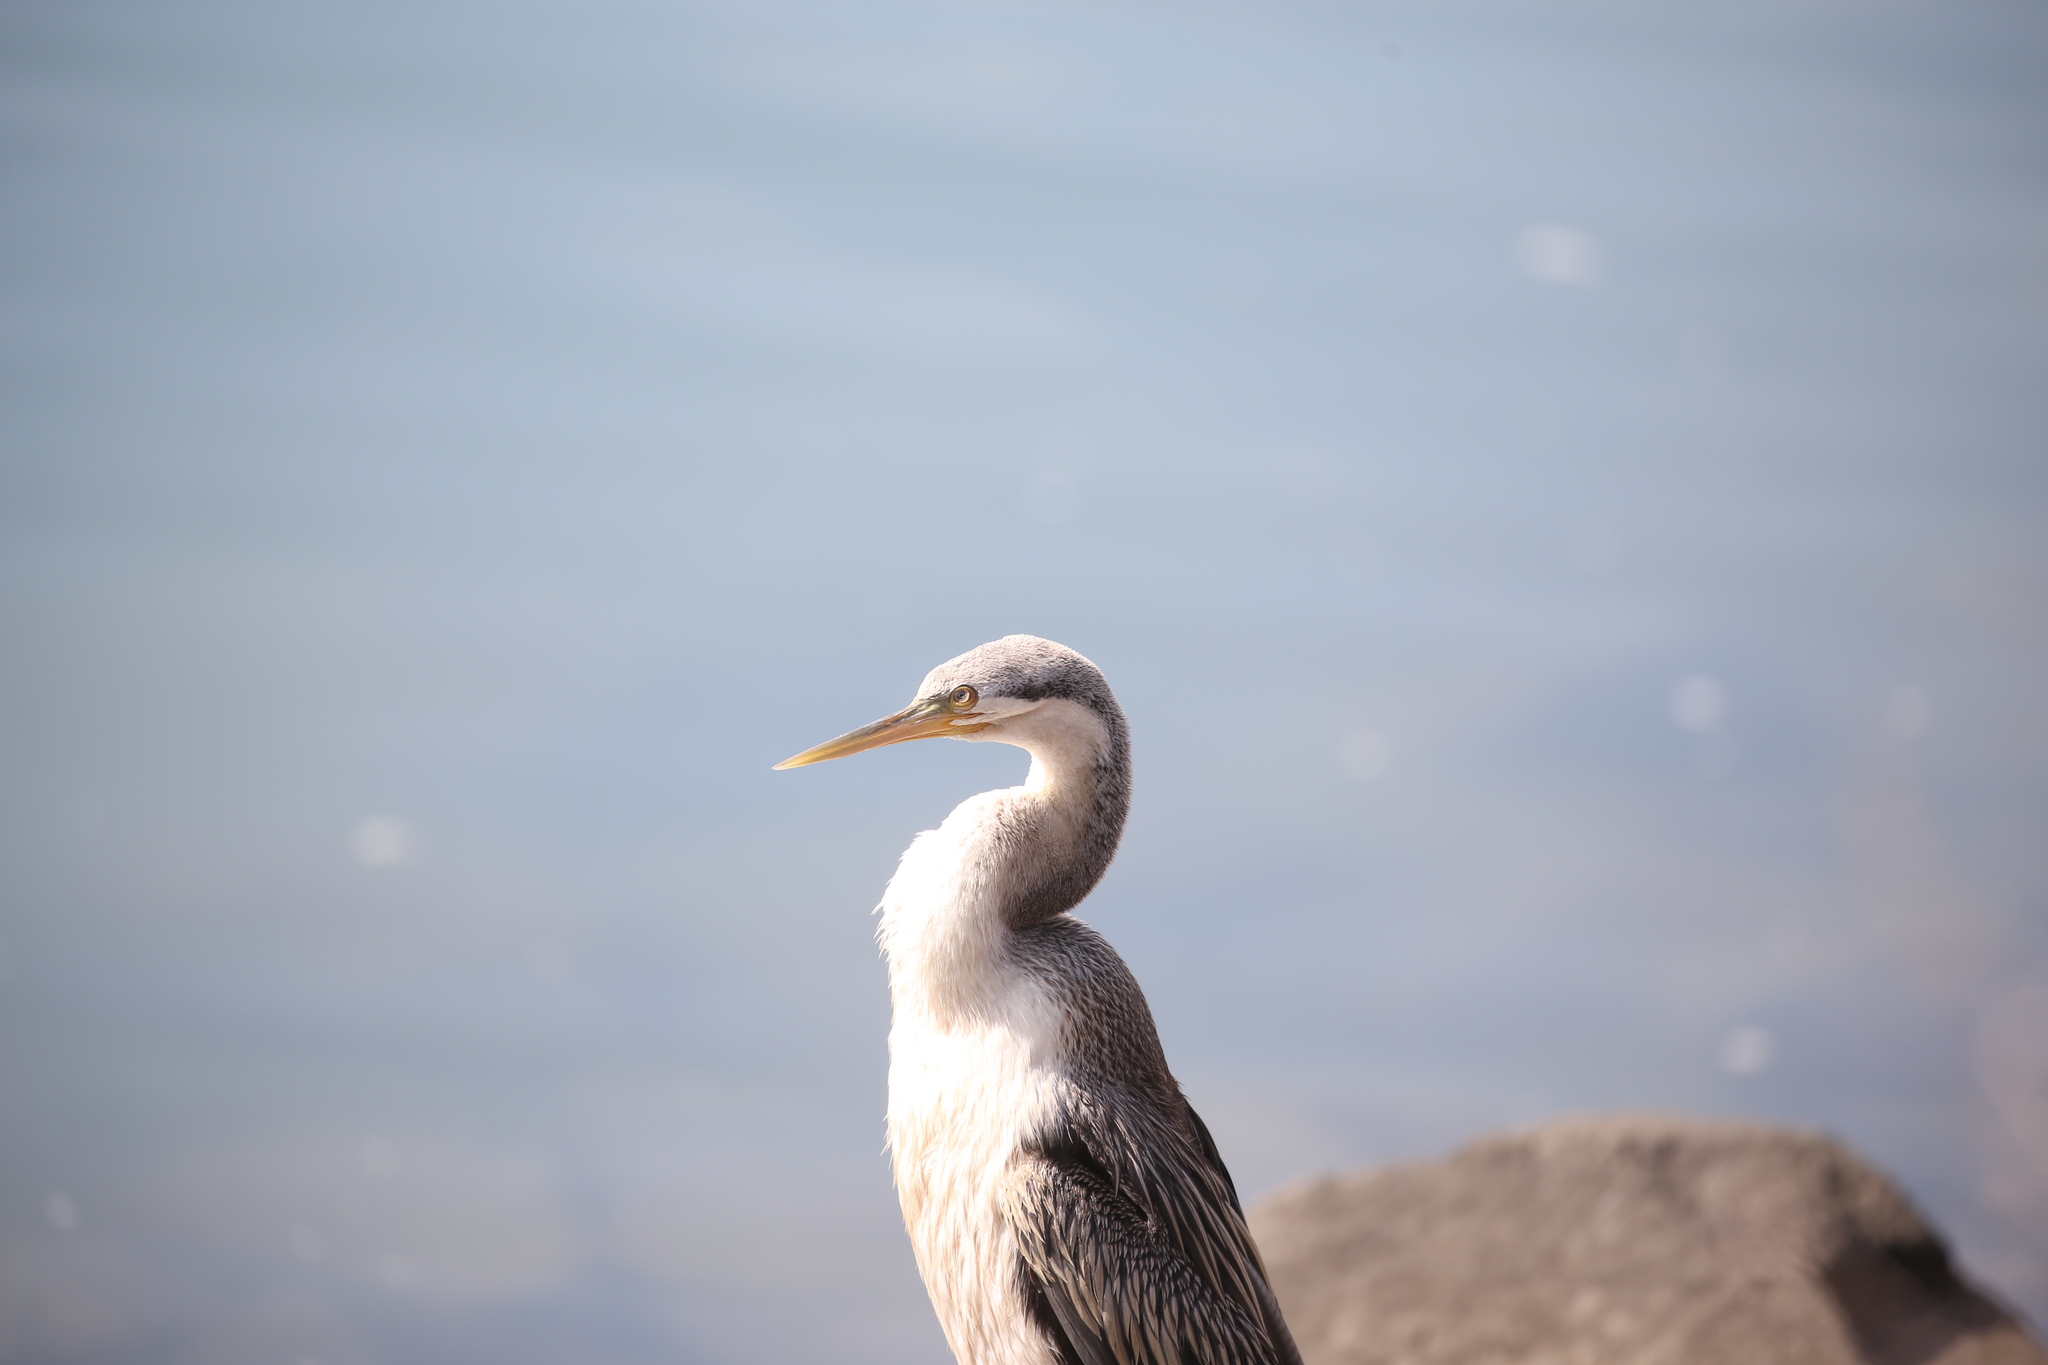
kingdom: Animalia
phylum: Chordata
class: Aves
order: Suliformes
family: Anhingidae
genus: Anhinga
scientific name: Anhinga novaehollandiae
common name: Australasian darter
